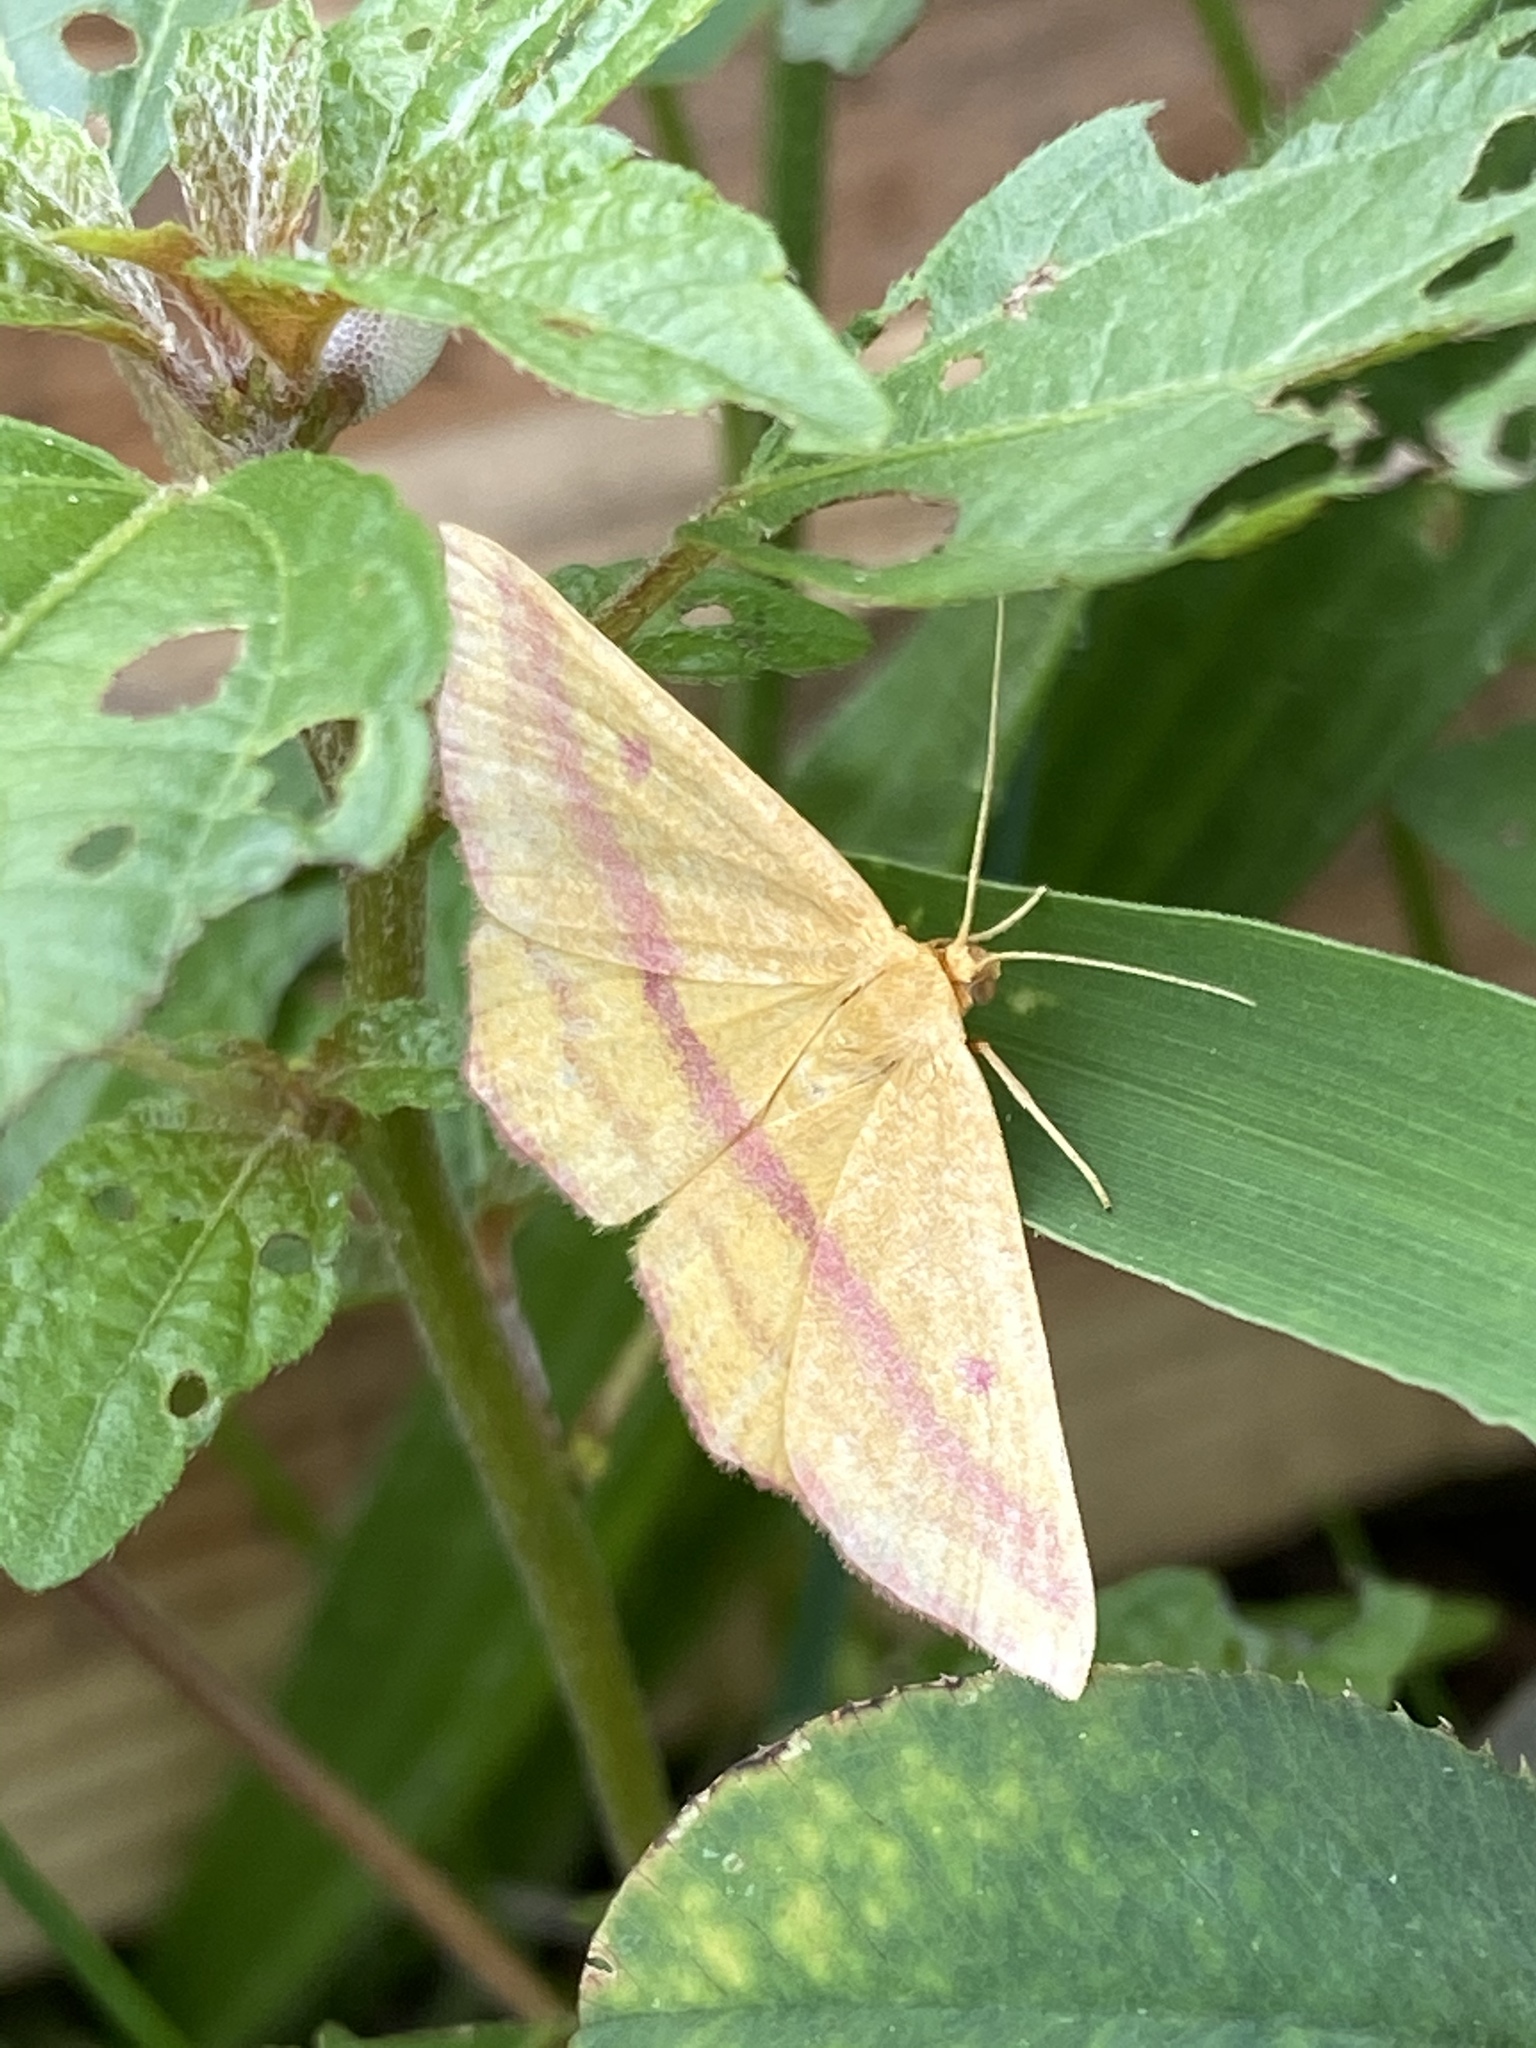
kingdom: Animalia
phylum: Arthropoda
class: Insecta
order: Lepidoptera
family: Geometridae
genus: Haematopis
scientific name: Haematopis grataria
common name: Chickweed geometer
